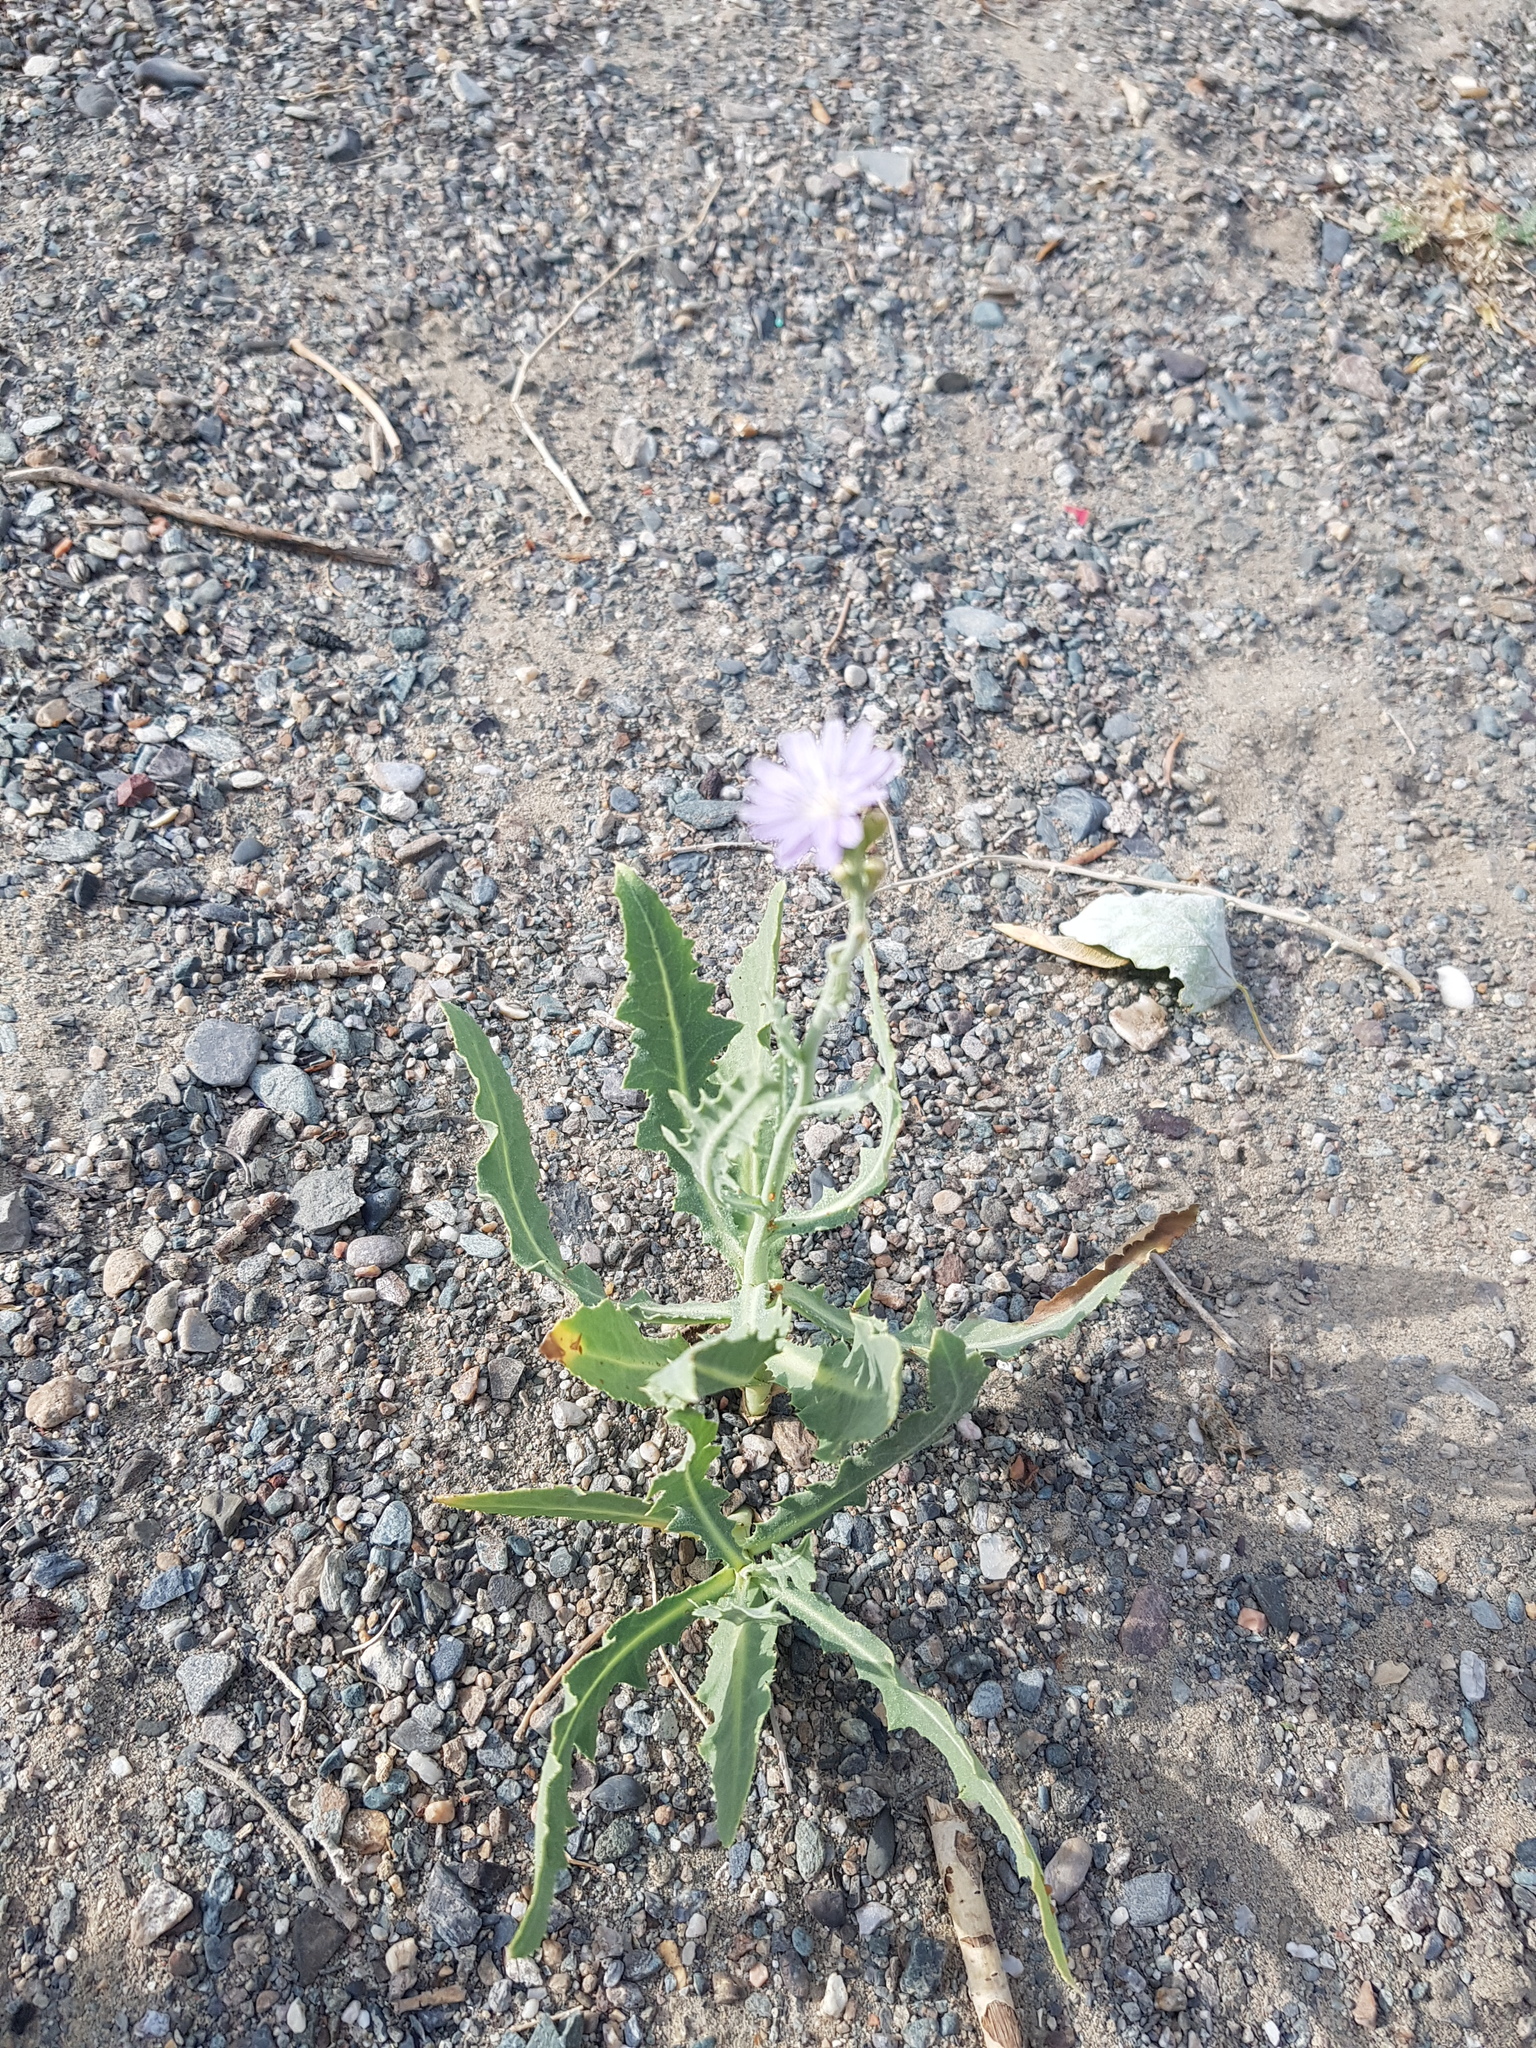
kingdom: Plantae
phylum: Tracheophyta
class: Magnoliopsida
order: Asterales
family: Asteraceae
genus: Lactuca
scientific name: Lactuca tatarica
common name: Blue lettuce
